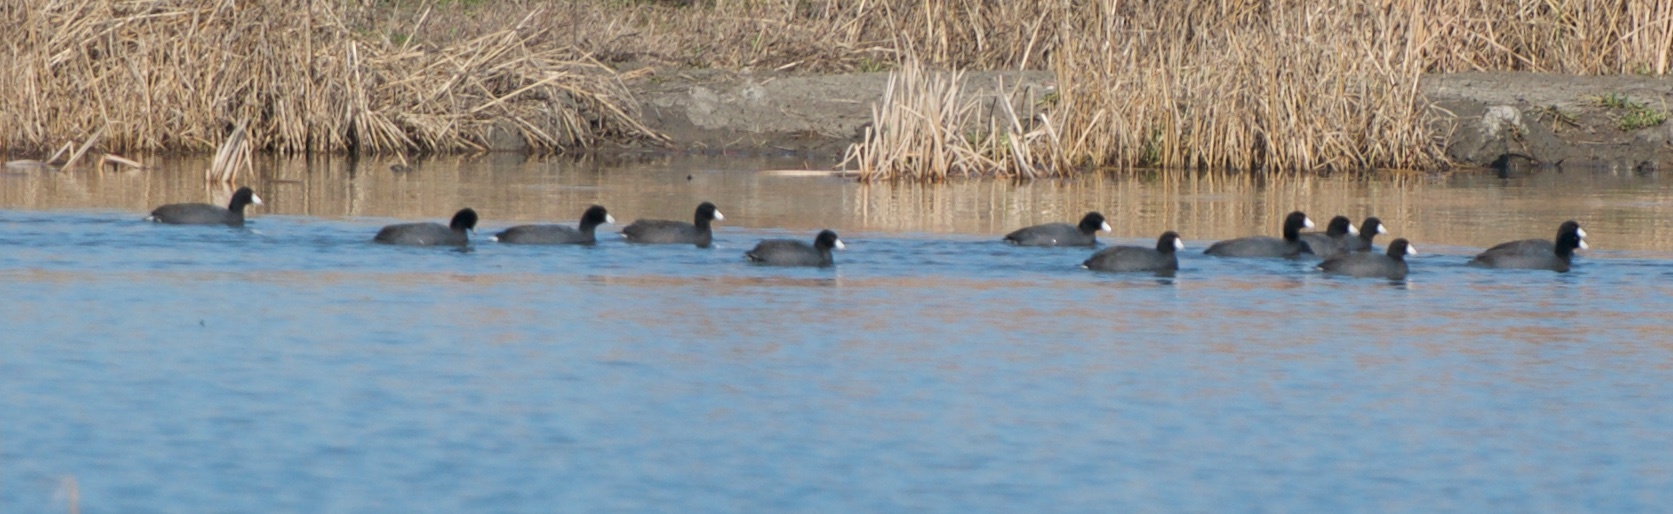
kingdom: Animalia
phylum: Chordata
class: Aves
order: Gruiformes
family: Rallidae
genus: Fulica
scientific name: Fulica americana
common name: American coot
